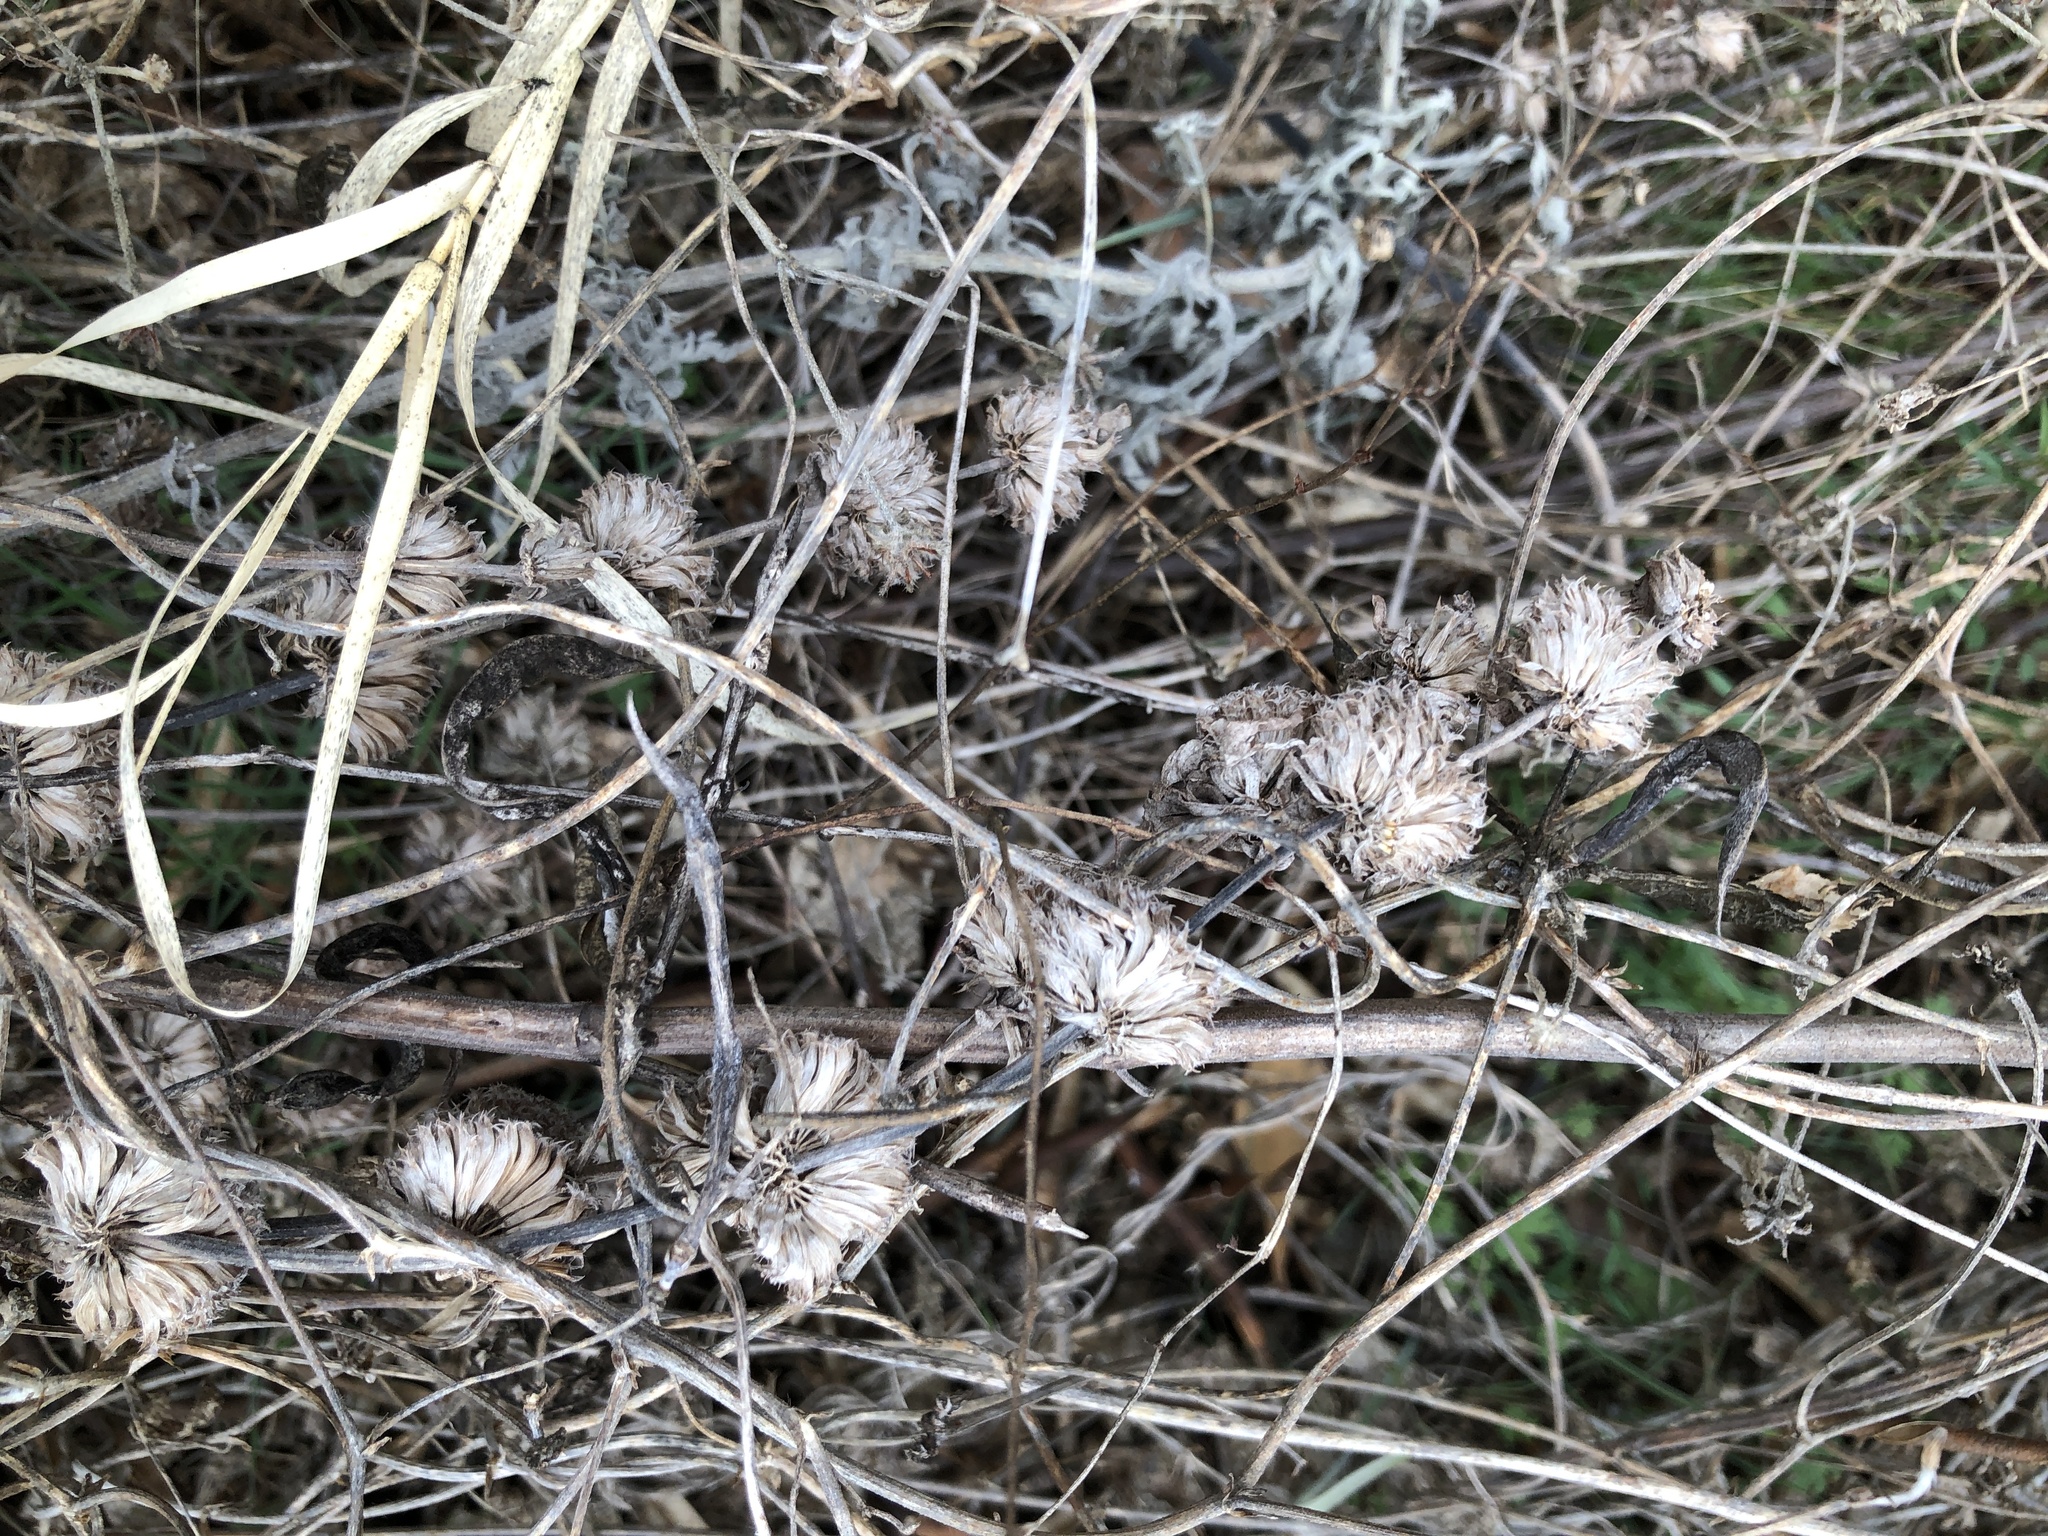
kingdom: Plantae
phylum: Tracheophyta
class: Magnoliopsida
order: Lamiales
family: Lamiaceae
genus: Monarda
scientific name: Monarda citriodora
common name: Lemon beebalm
